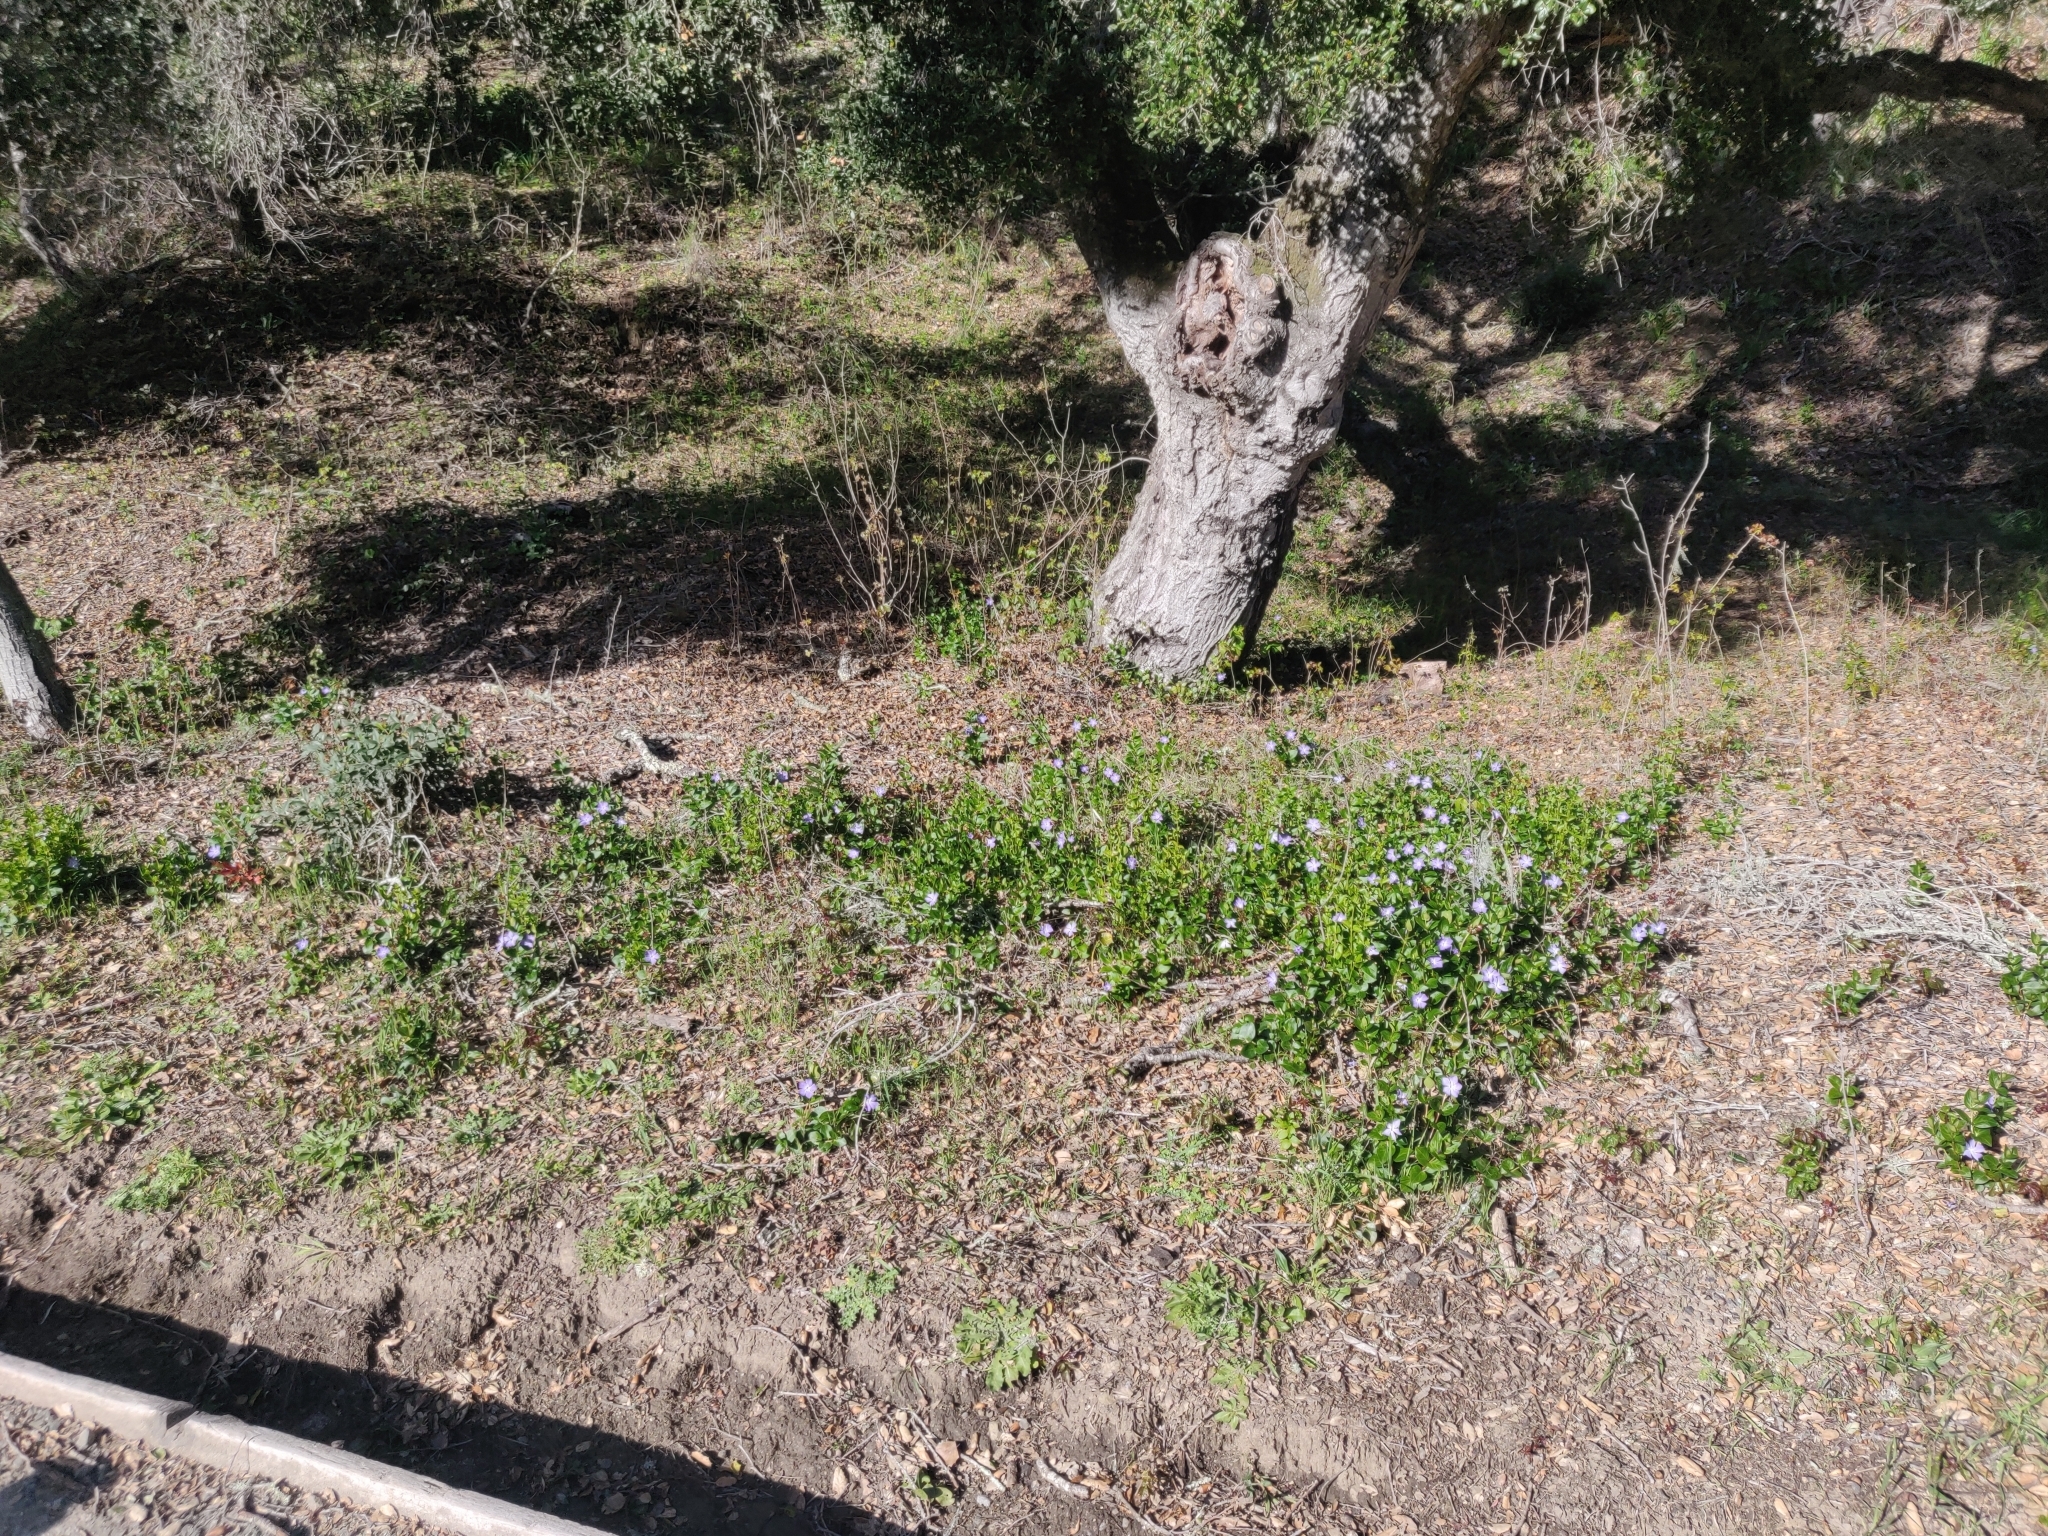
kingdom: Plantae
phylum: Tracheophyta
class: Magnoliopsida
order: Gentianales
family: Apocynaceae
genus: Vinca
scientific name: Vinca major
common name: Greater periwinkle
